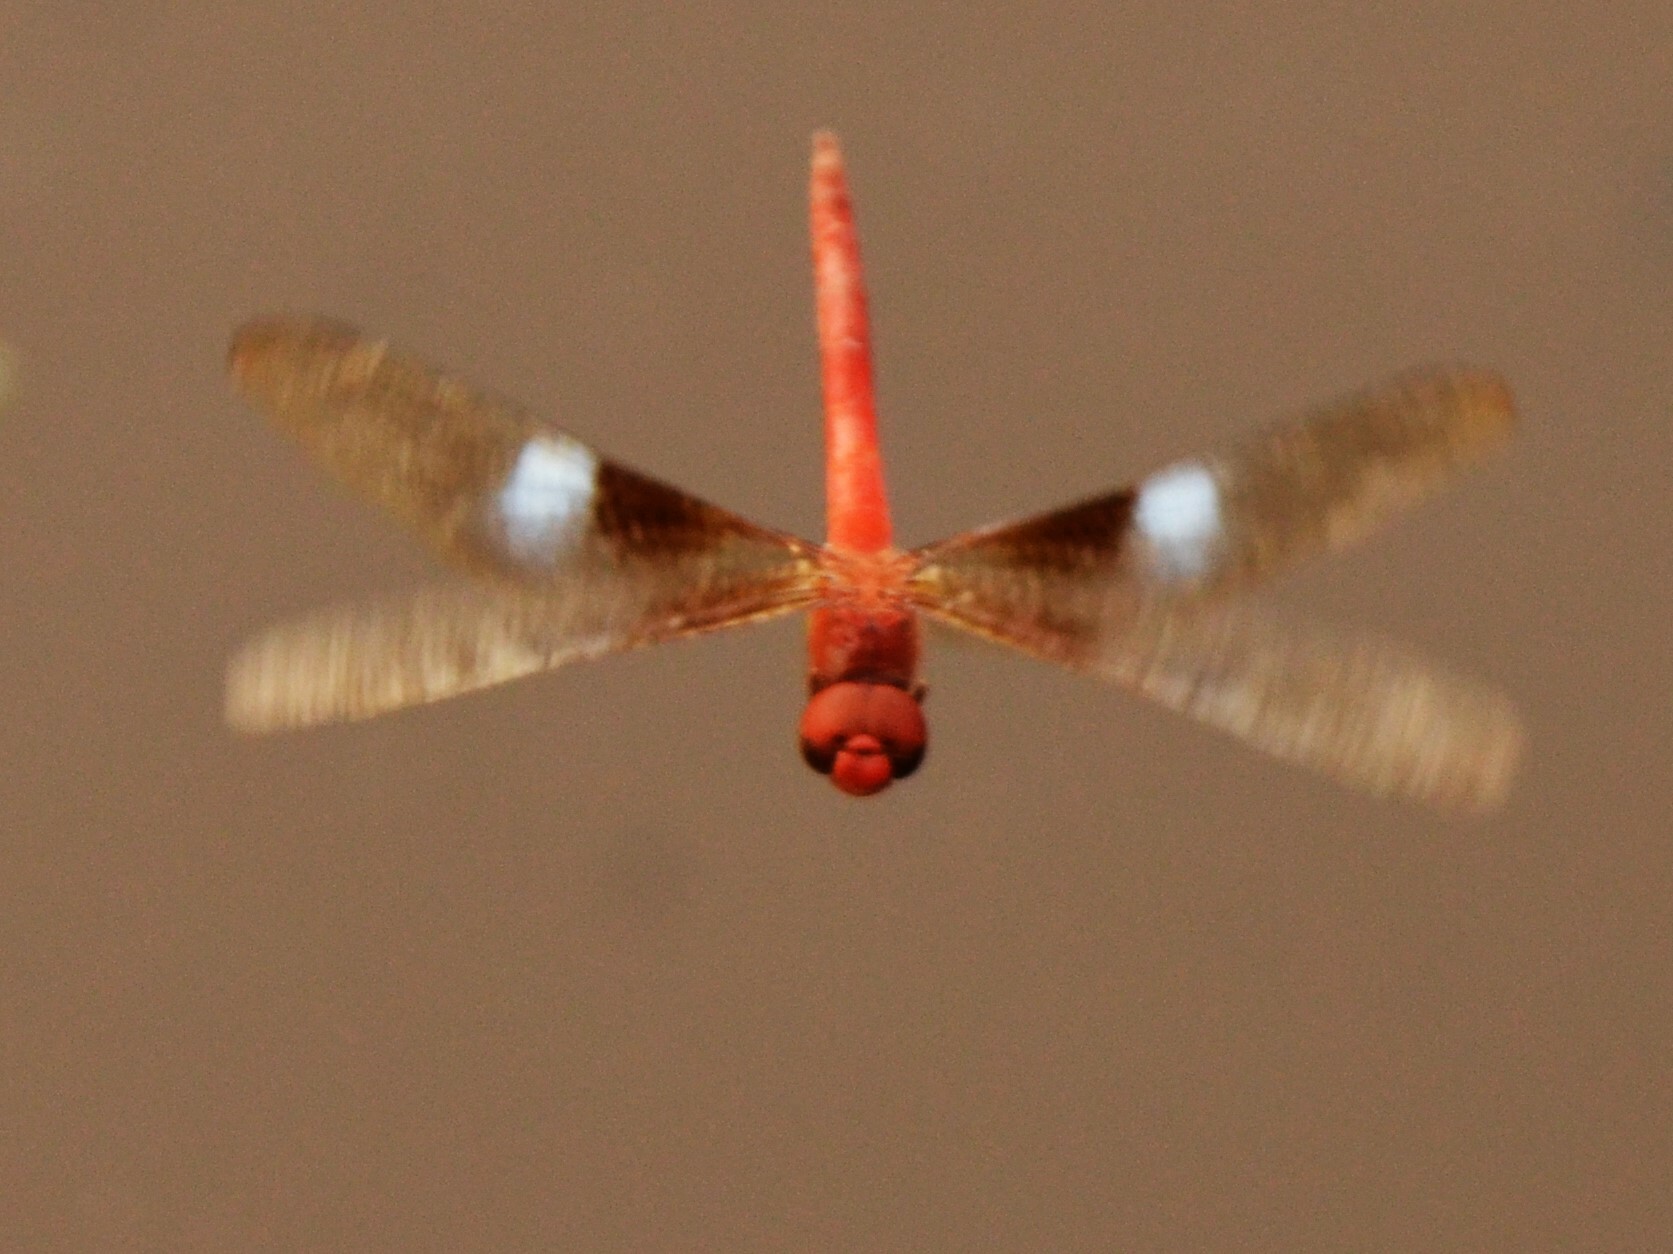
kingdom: Animalia
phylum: Arthropoda
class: Insecta
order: Odonata
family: Libellulidae
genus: Tholymis
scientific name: Tholymis tillarga
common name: Coral-tailed cloud wing
